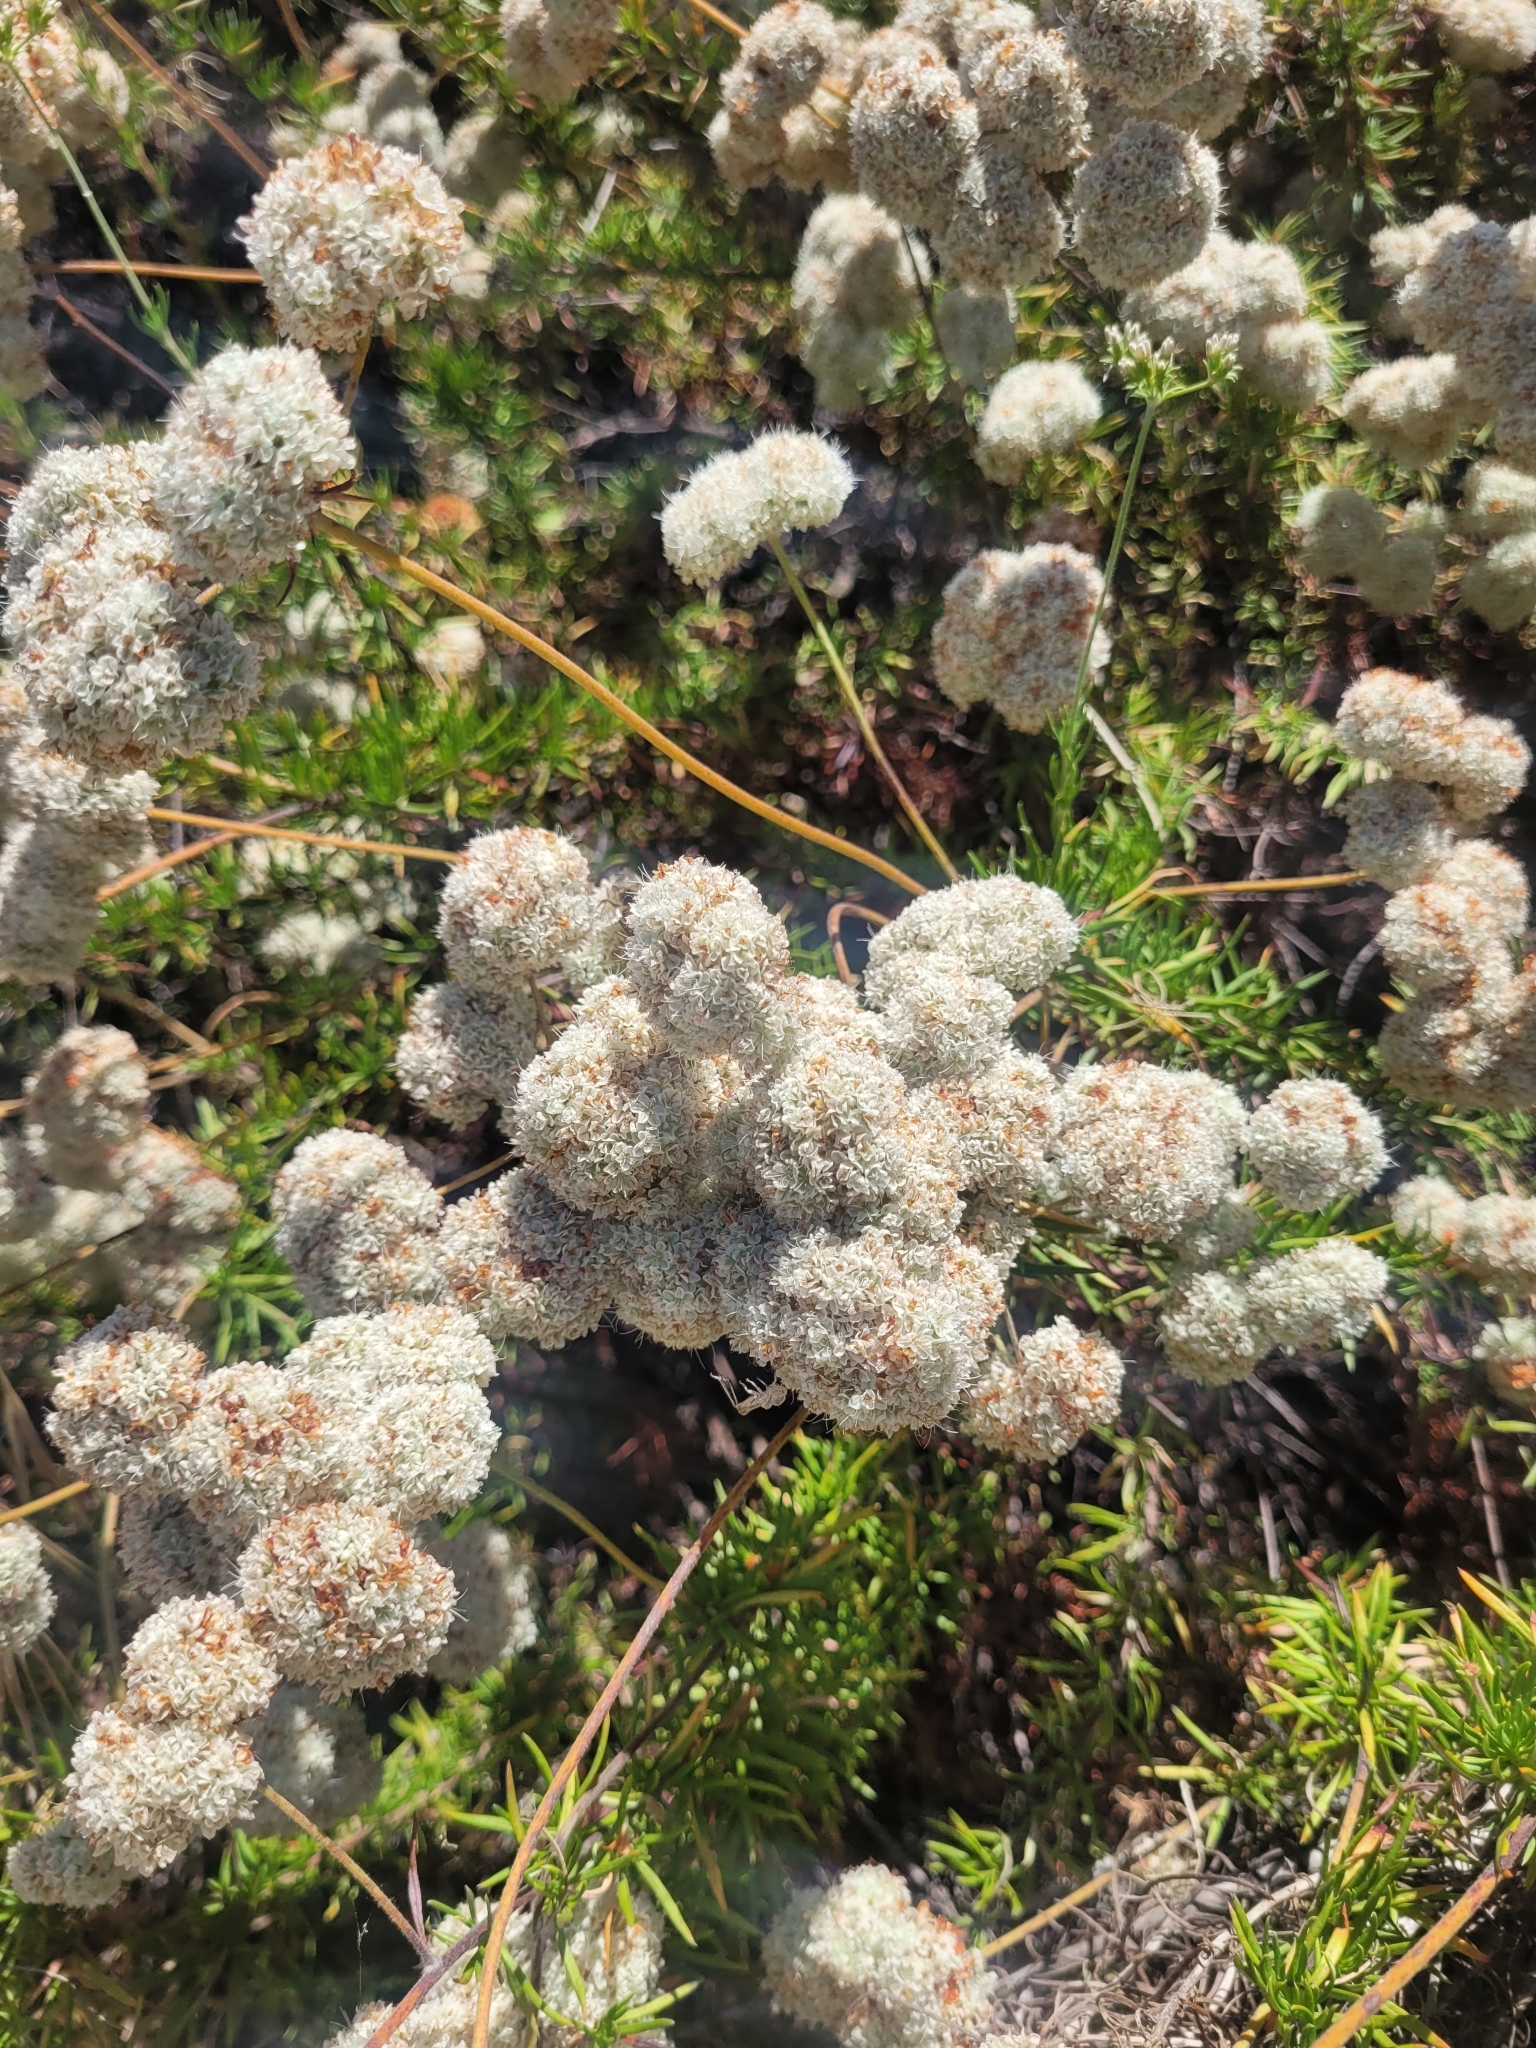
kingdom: Plantae
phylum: Tracheophyta
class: Magnoliopsida
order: Caryophyllales
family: Polygonaceae
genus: Eriogonum
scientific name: Eriogonum fasciculatum
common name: California wild buckwheat
